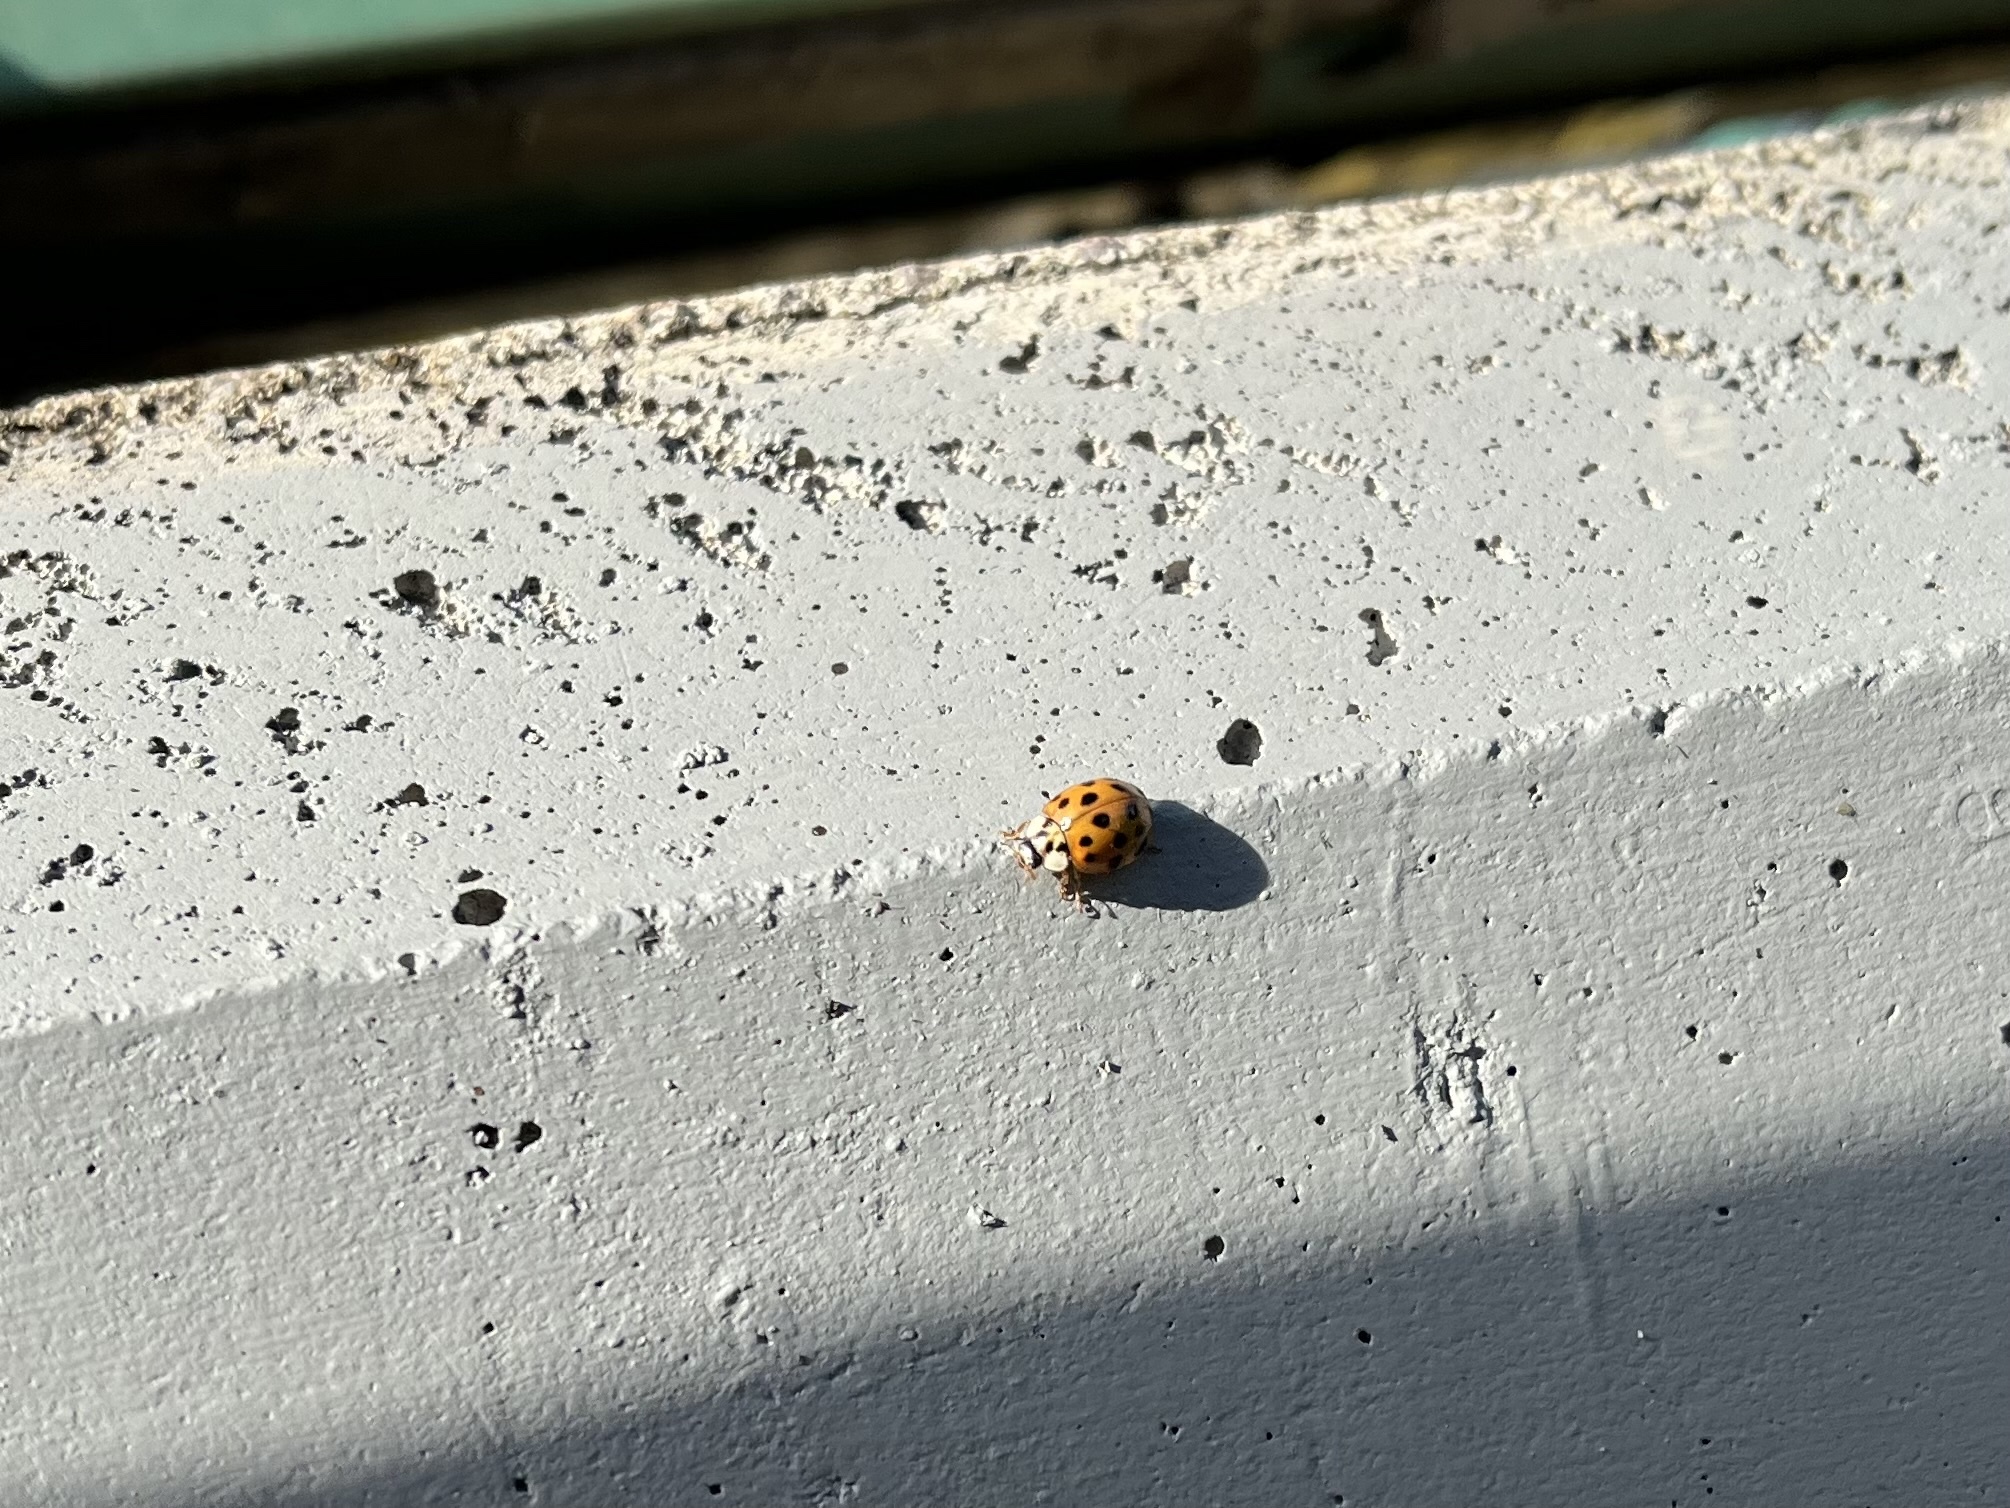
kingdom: Animalia
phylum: Arthropoda
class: Insecta
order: Coleoptera
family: Coccinellidae
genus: Harmonia
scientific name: Harmonia axyridis
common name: Harlequin ladybird
